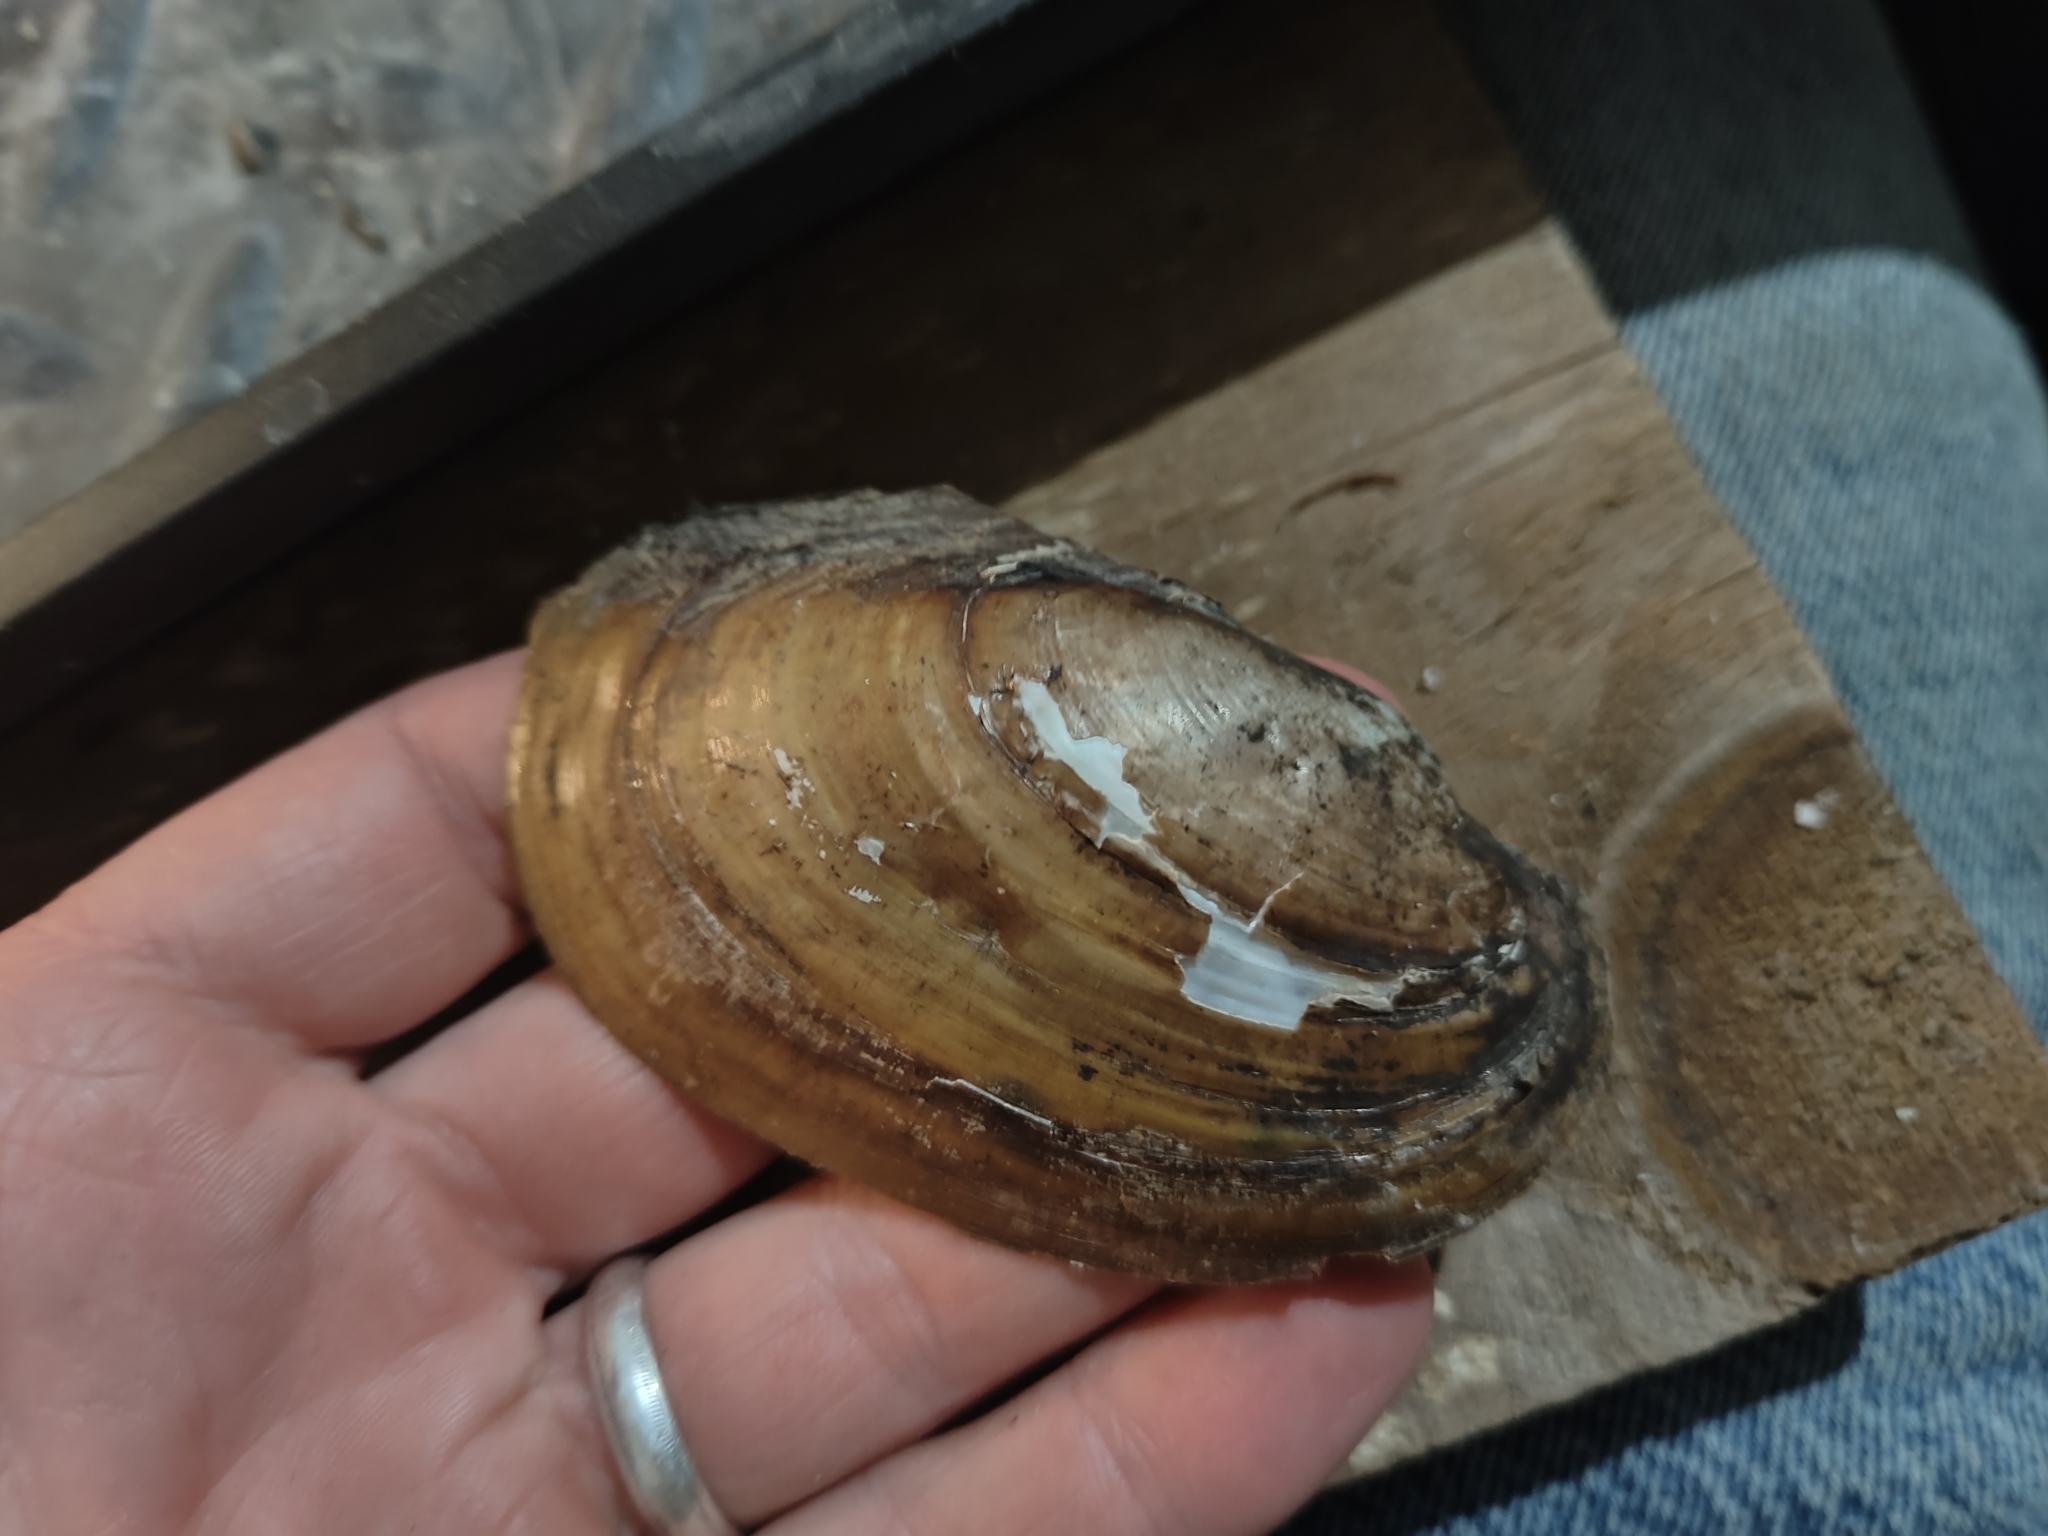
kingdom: Animalia
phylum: Mollusca
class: Bivalvia
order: Unionida
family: Unionidae
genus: Potamilus
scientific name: Potamilus fragilis
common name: Fragile papershell
